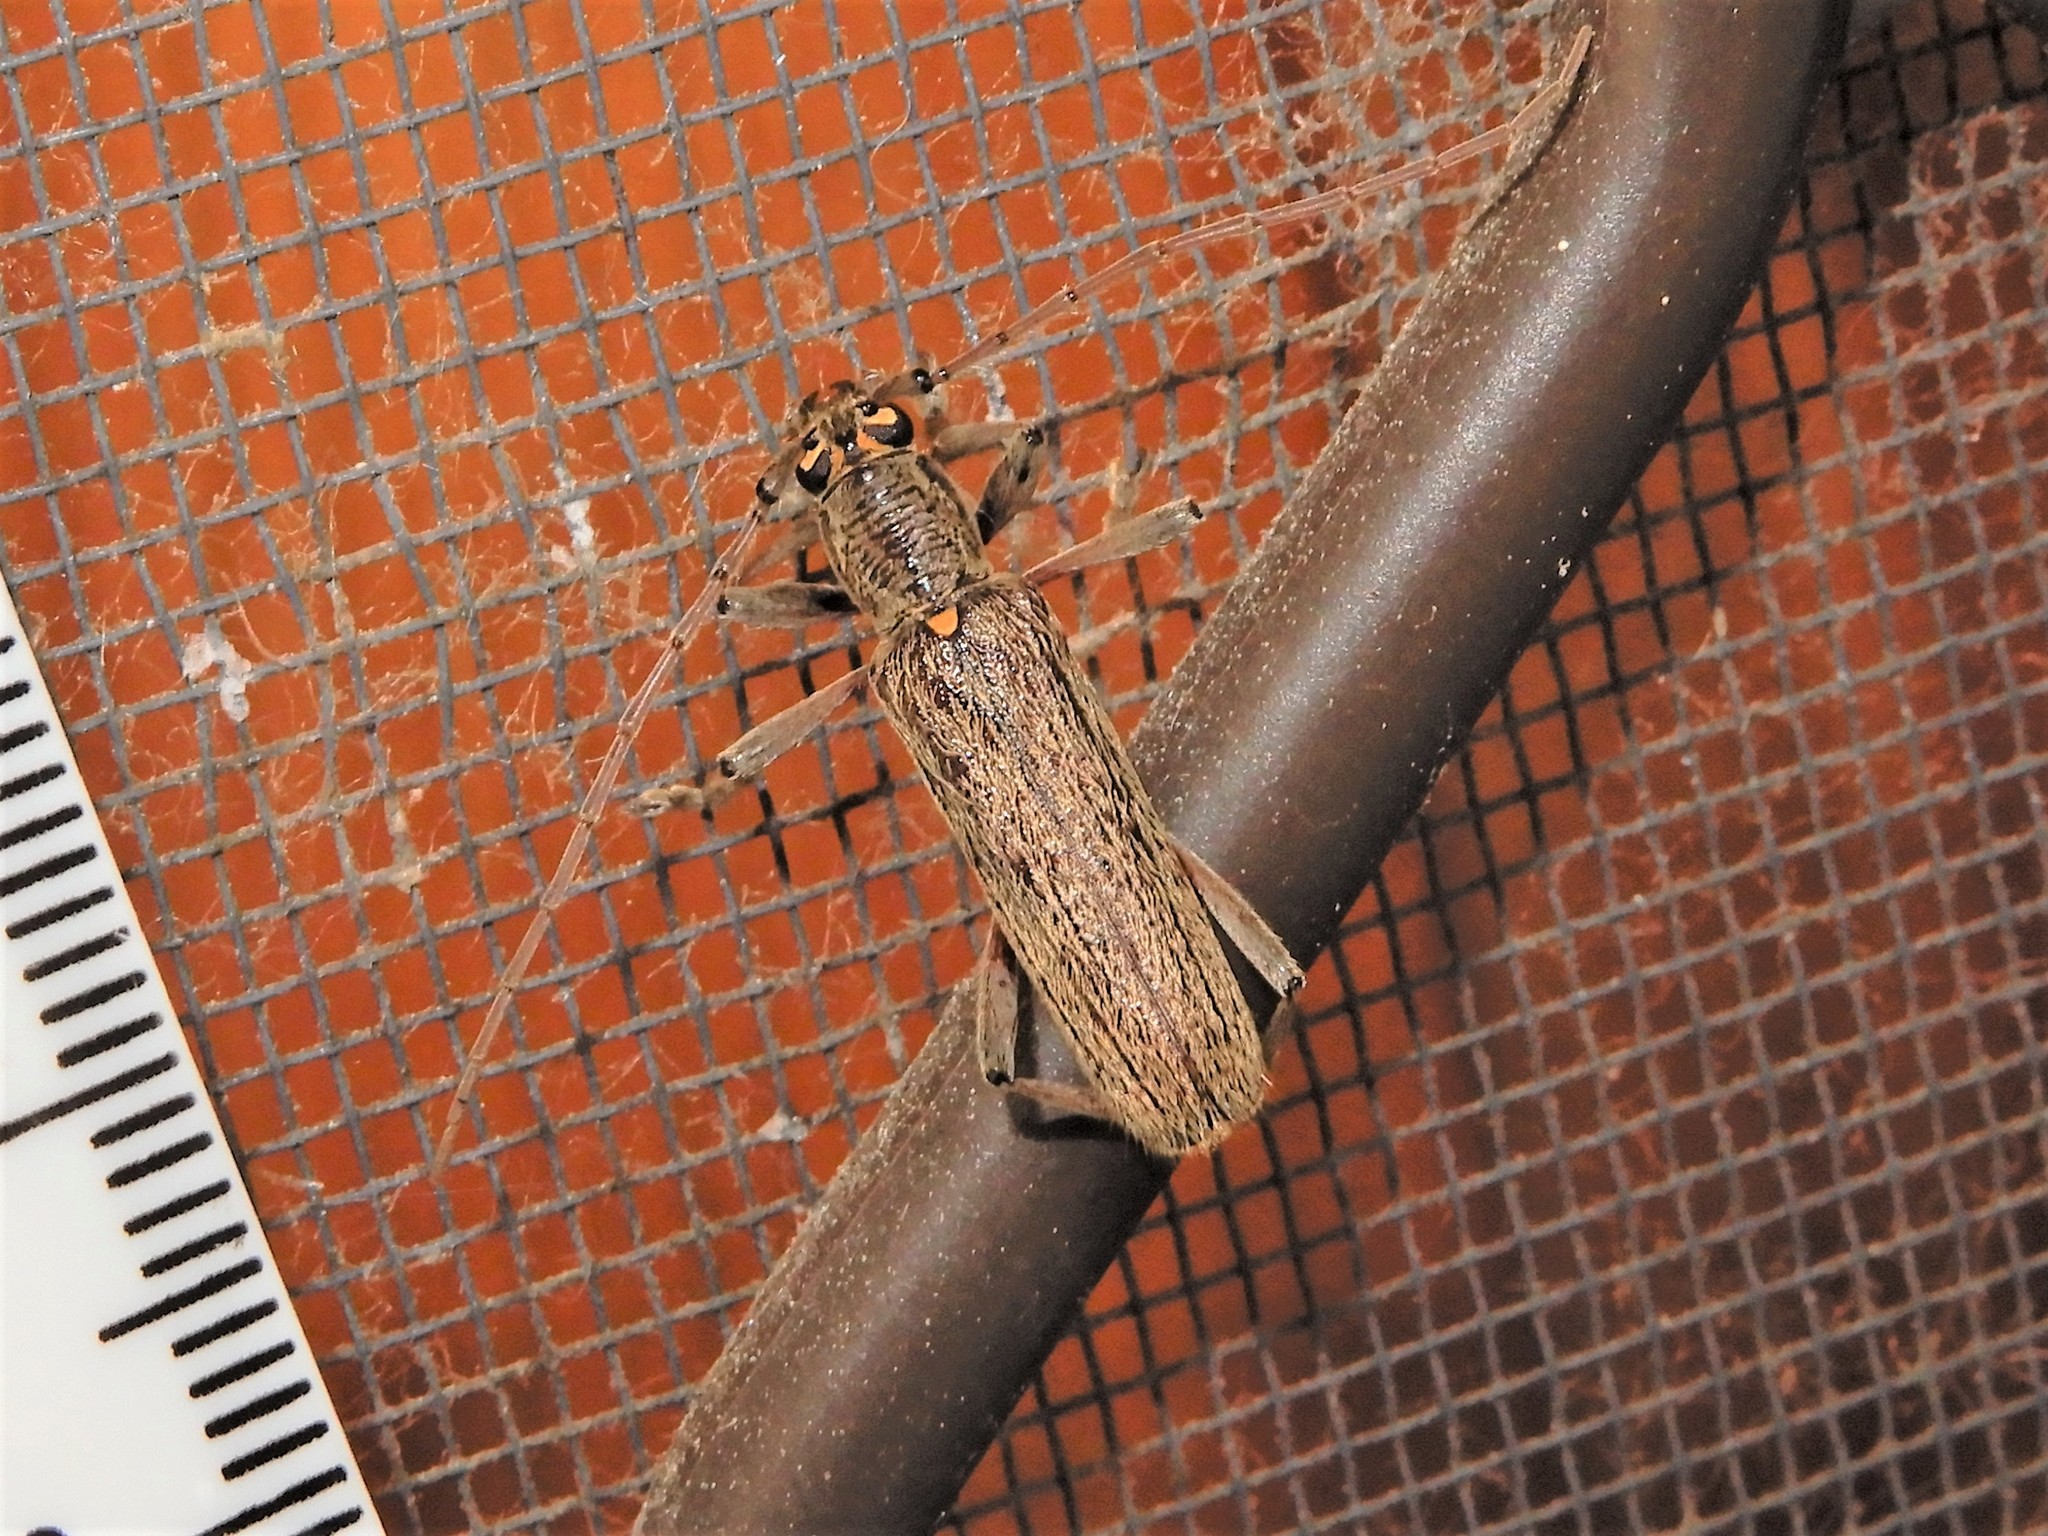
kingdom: Animalia
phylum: Arthropoda
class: Insecta
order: Coleoptera
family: Cerambycidae
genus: Oemona
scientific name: Oemona hirta
